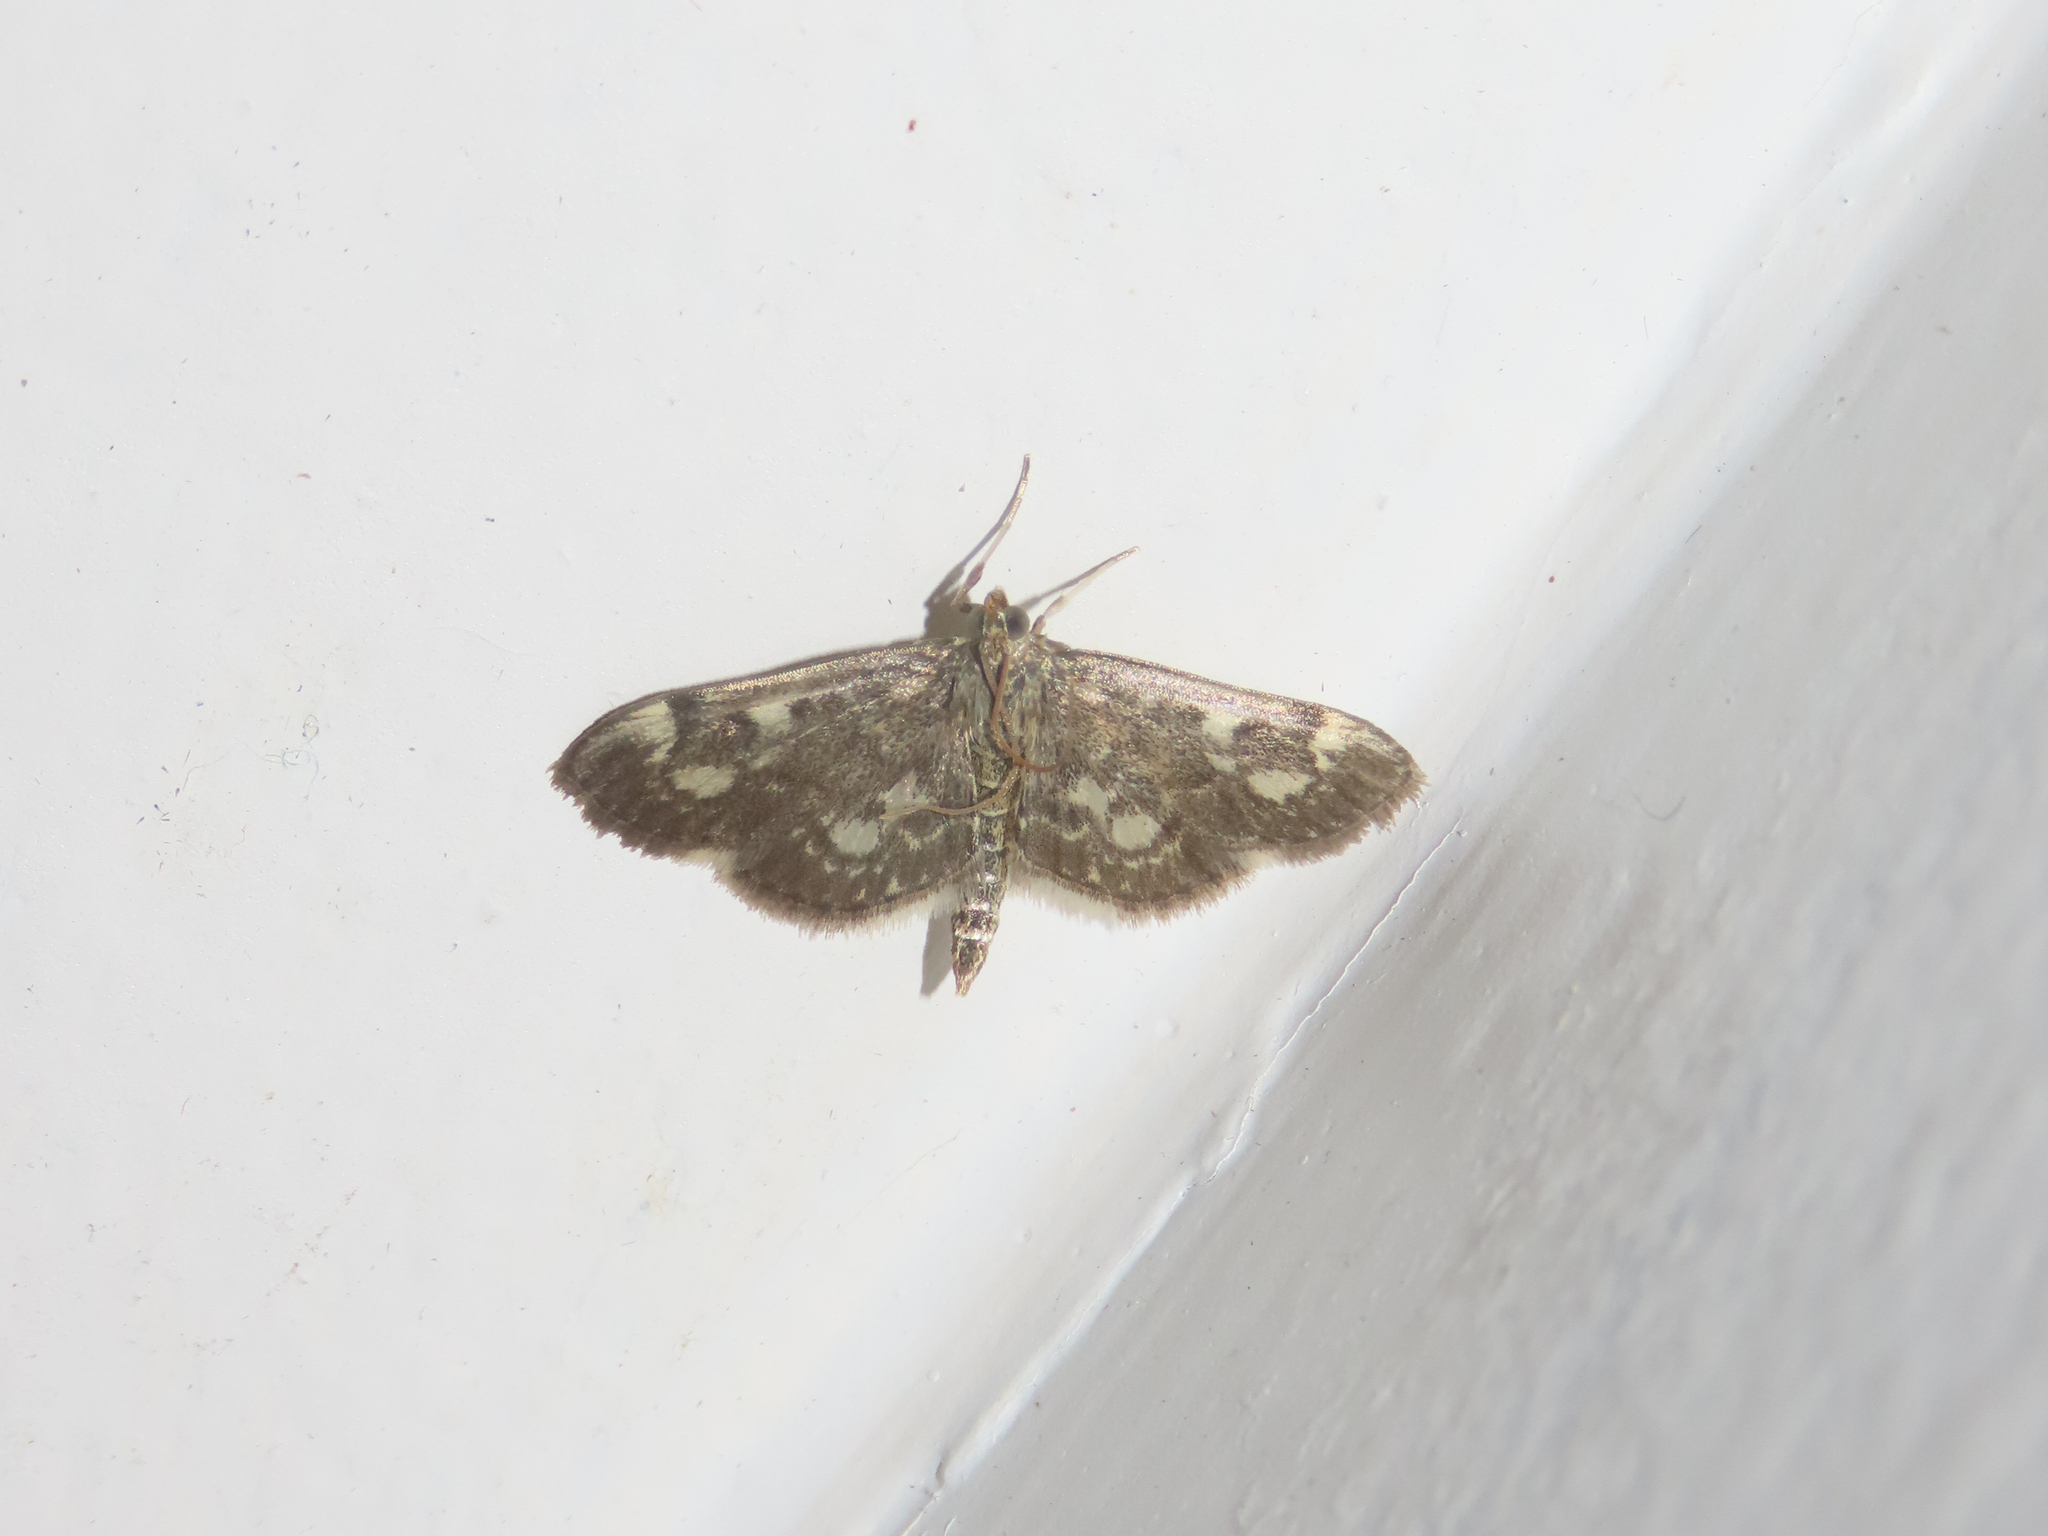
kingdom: Animalia
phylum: Arthropoda
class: Insecta
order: Lepidoptera
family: Crambidae
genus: Anania
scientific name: Anania
